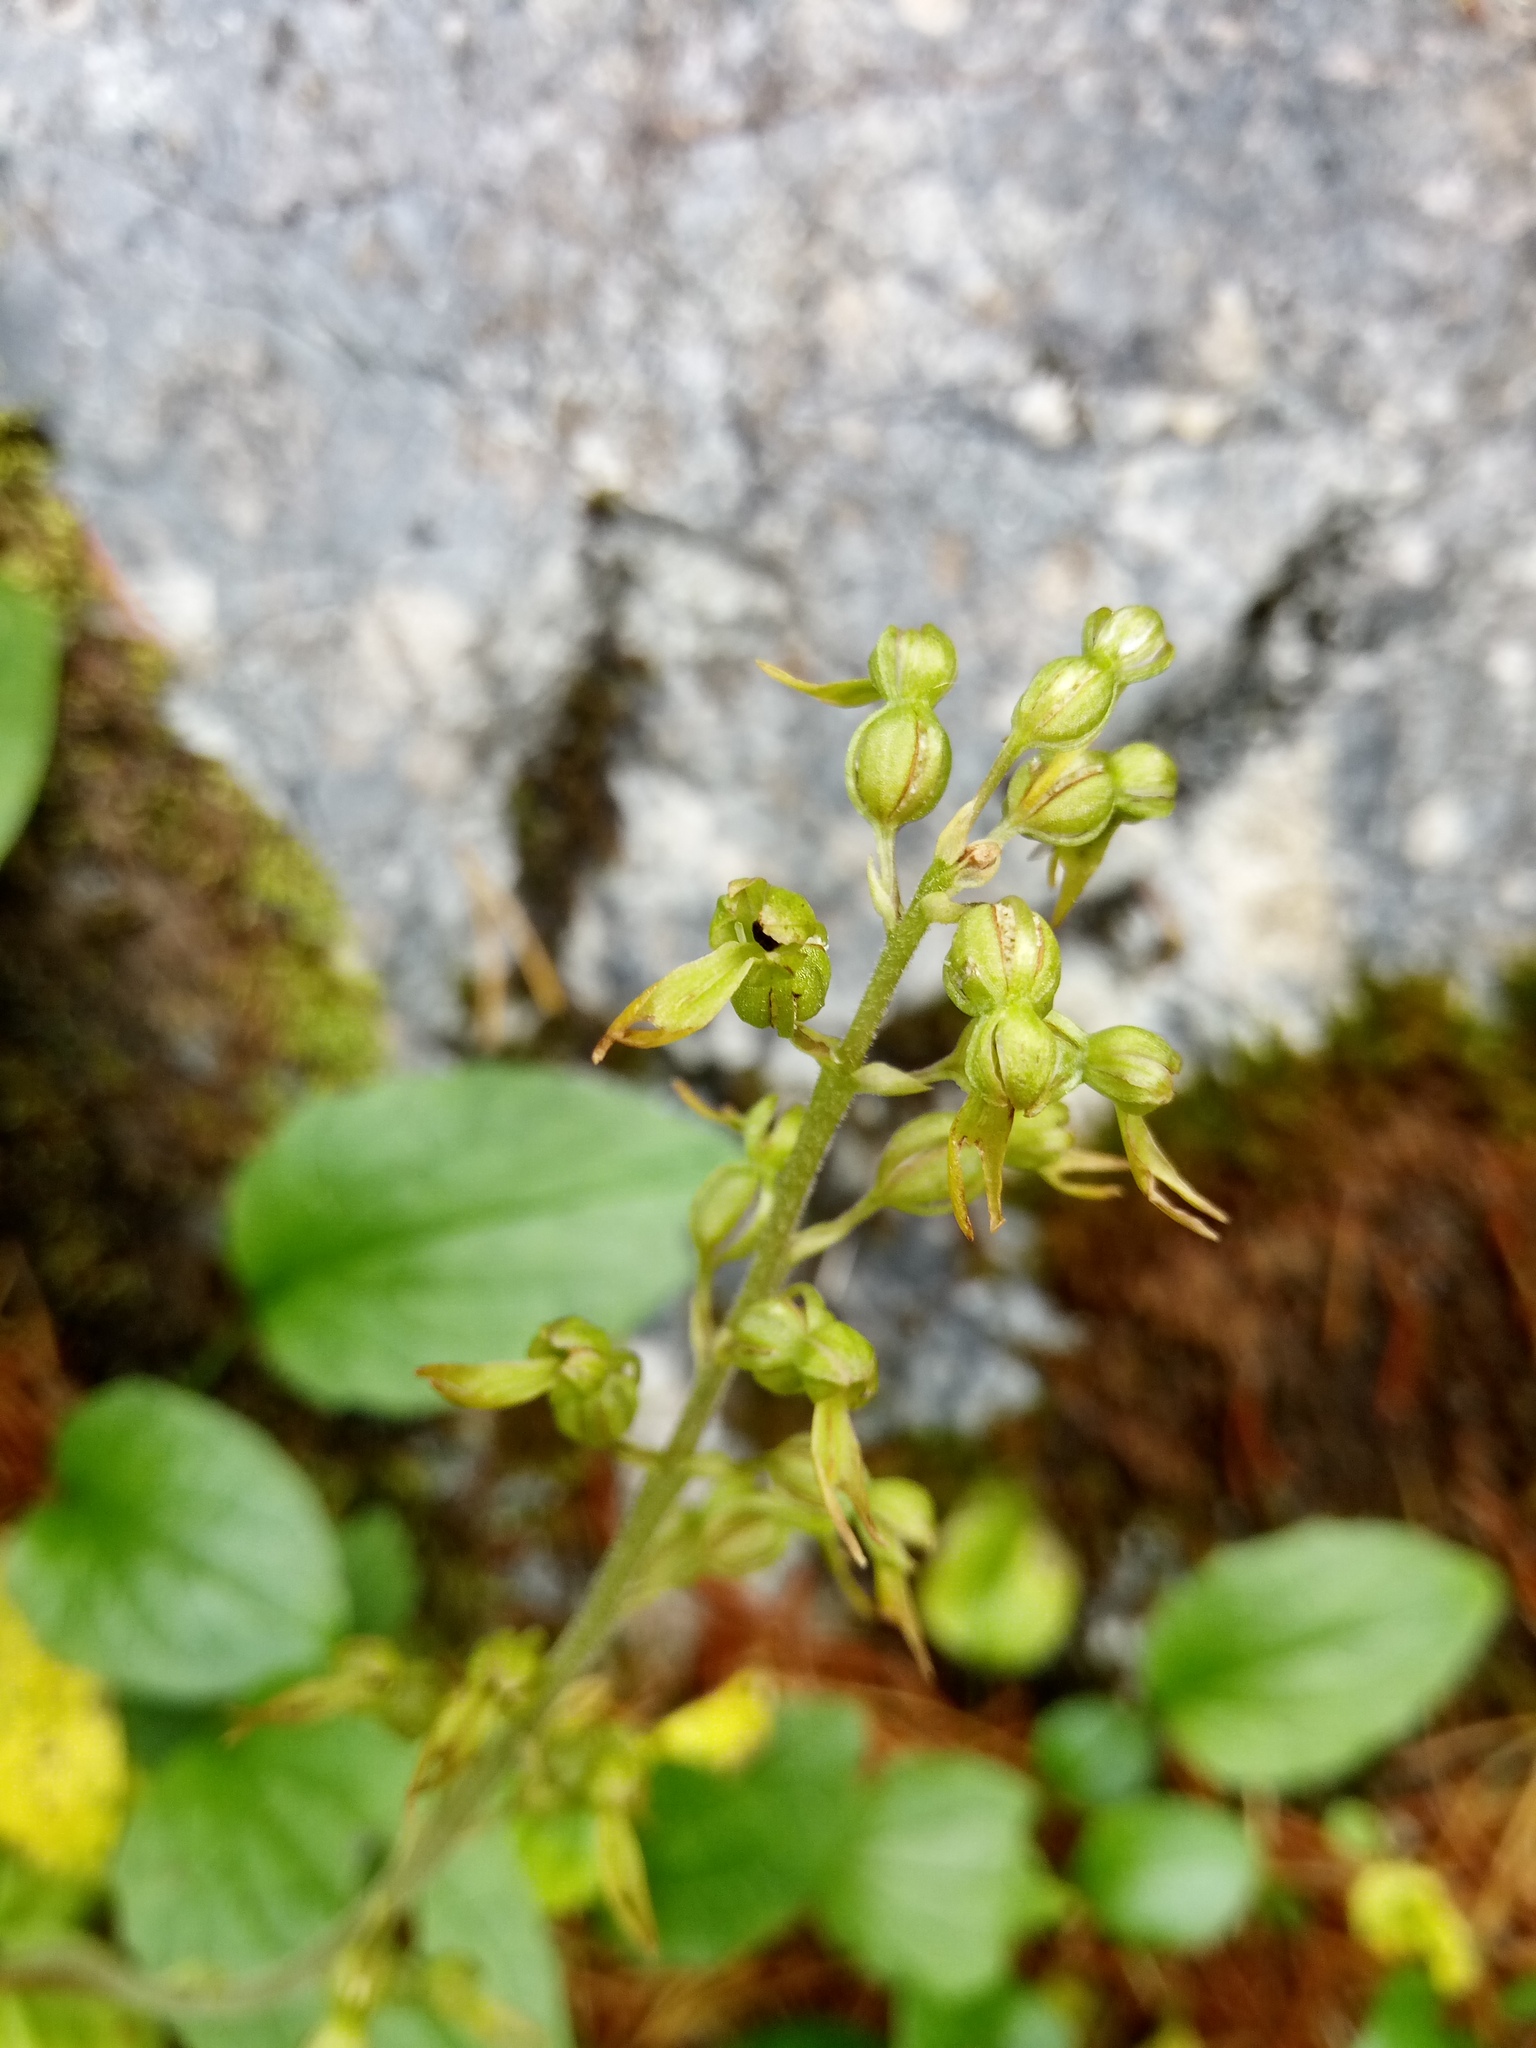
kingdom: Plantae
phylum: Tracheophyta
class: Liliopsida
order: Asparagales
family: Orchidaceae
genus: Neottia
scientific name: Neottia ovata
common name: Common twayblade
